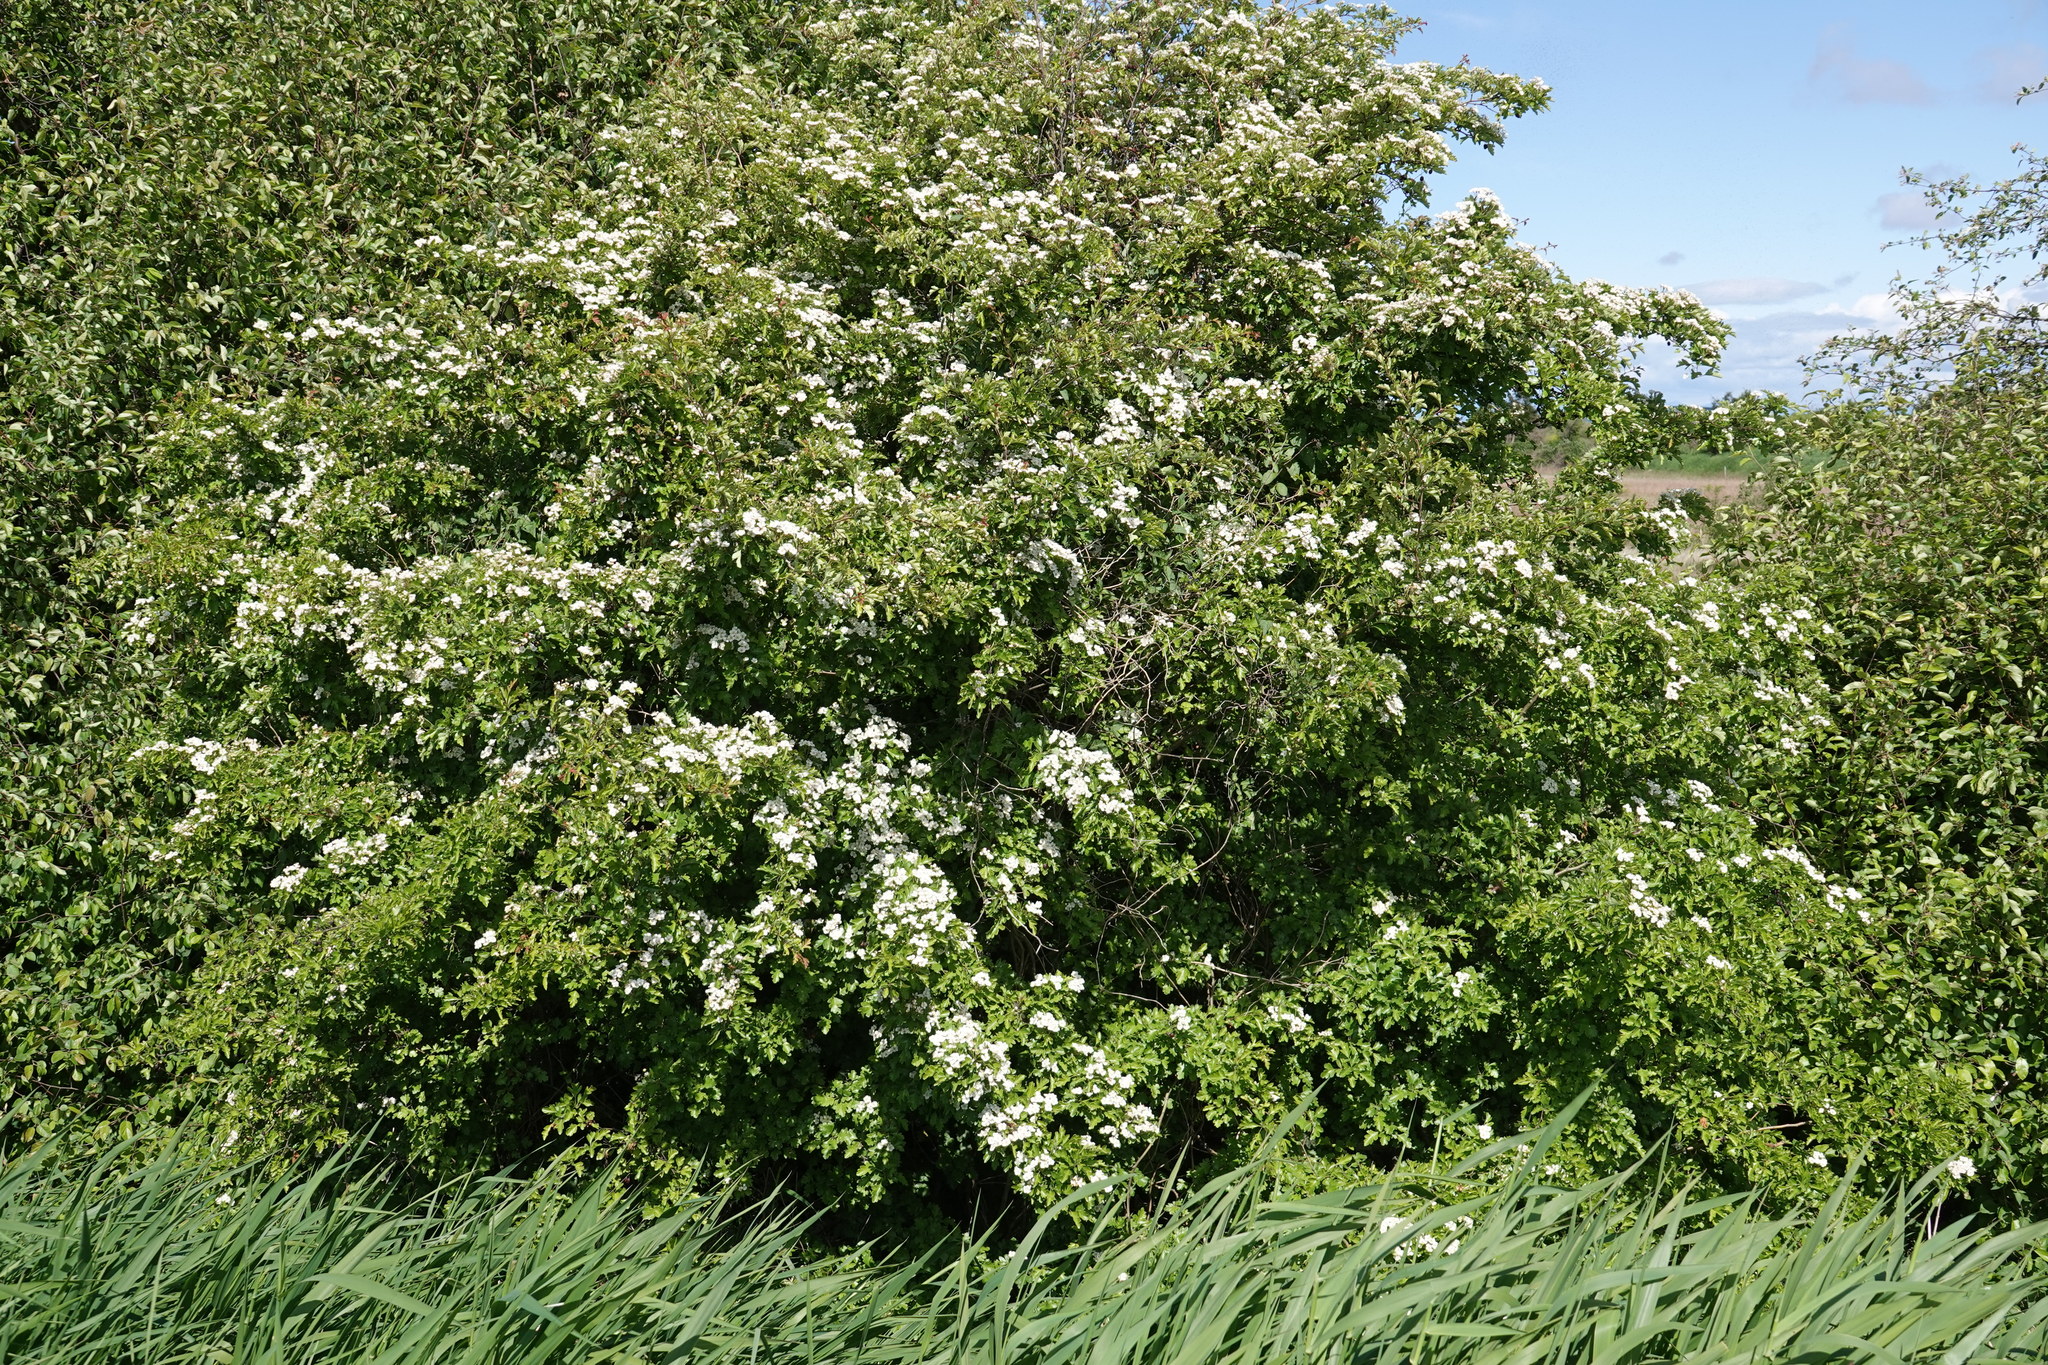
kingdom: Plantae
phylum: Tracheophyta
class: Magnoliopsida
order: Rosales
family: Rosaceae
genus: Crataegus
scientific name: Crataegus monogyna
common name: Hawthorn
